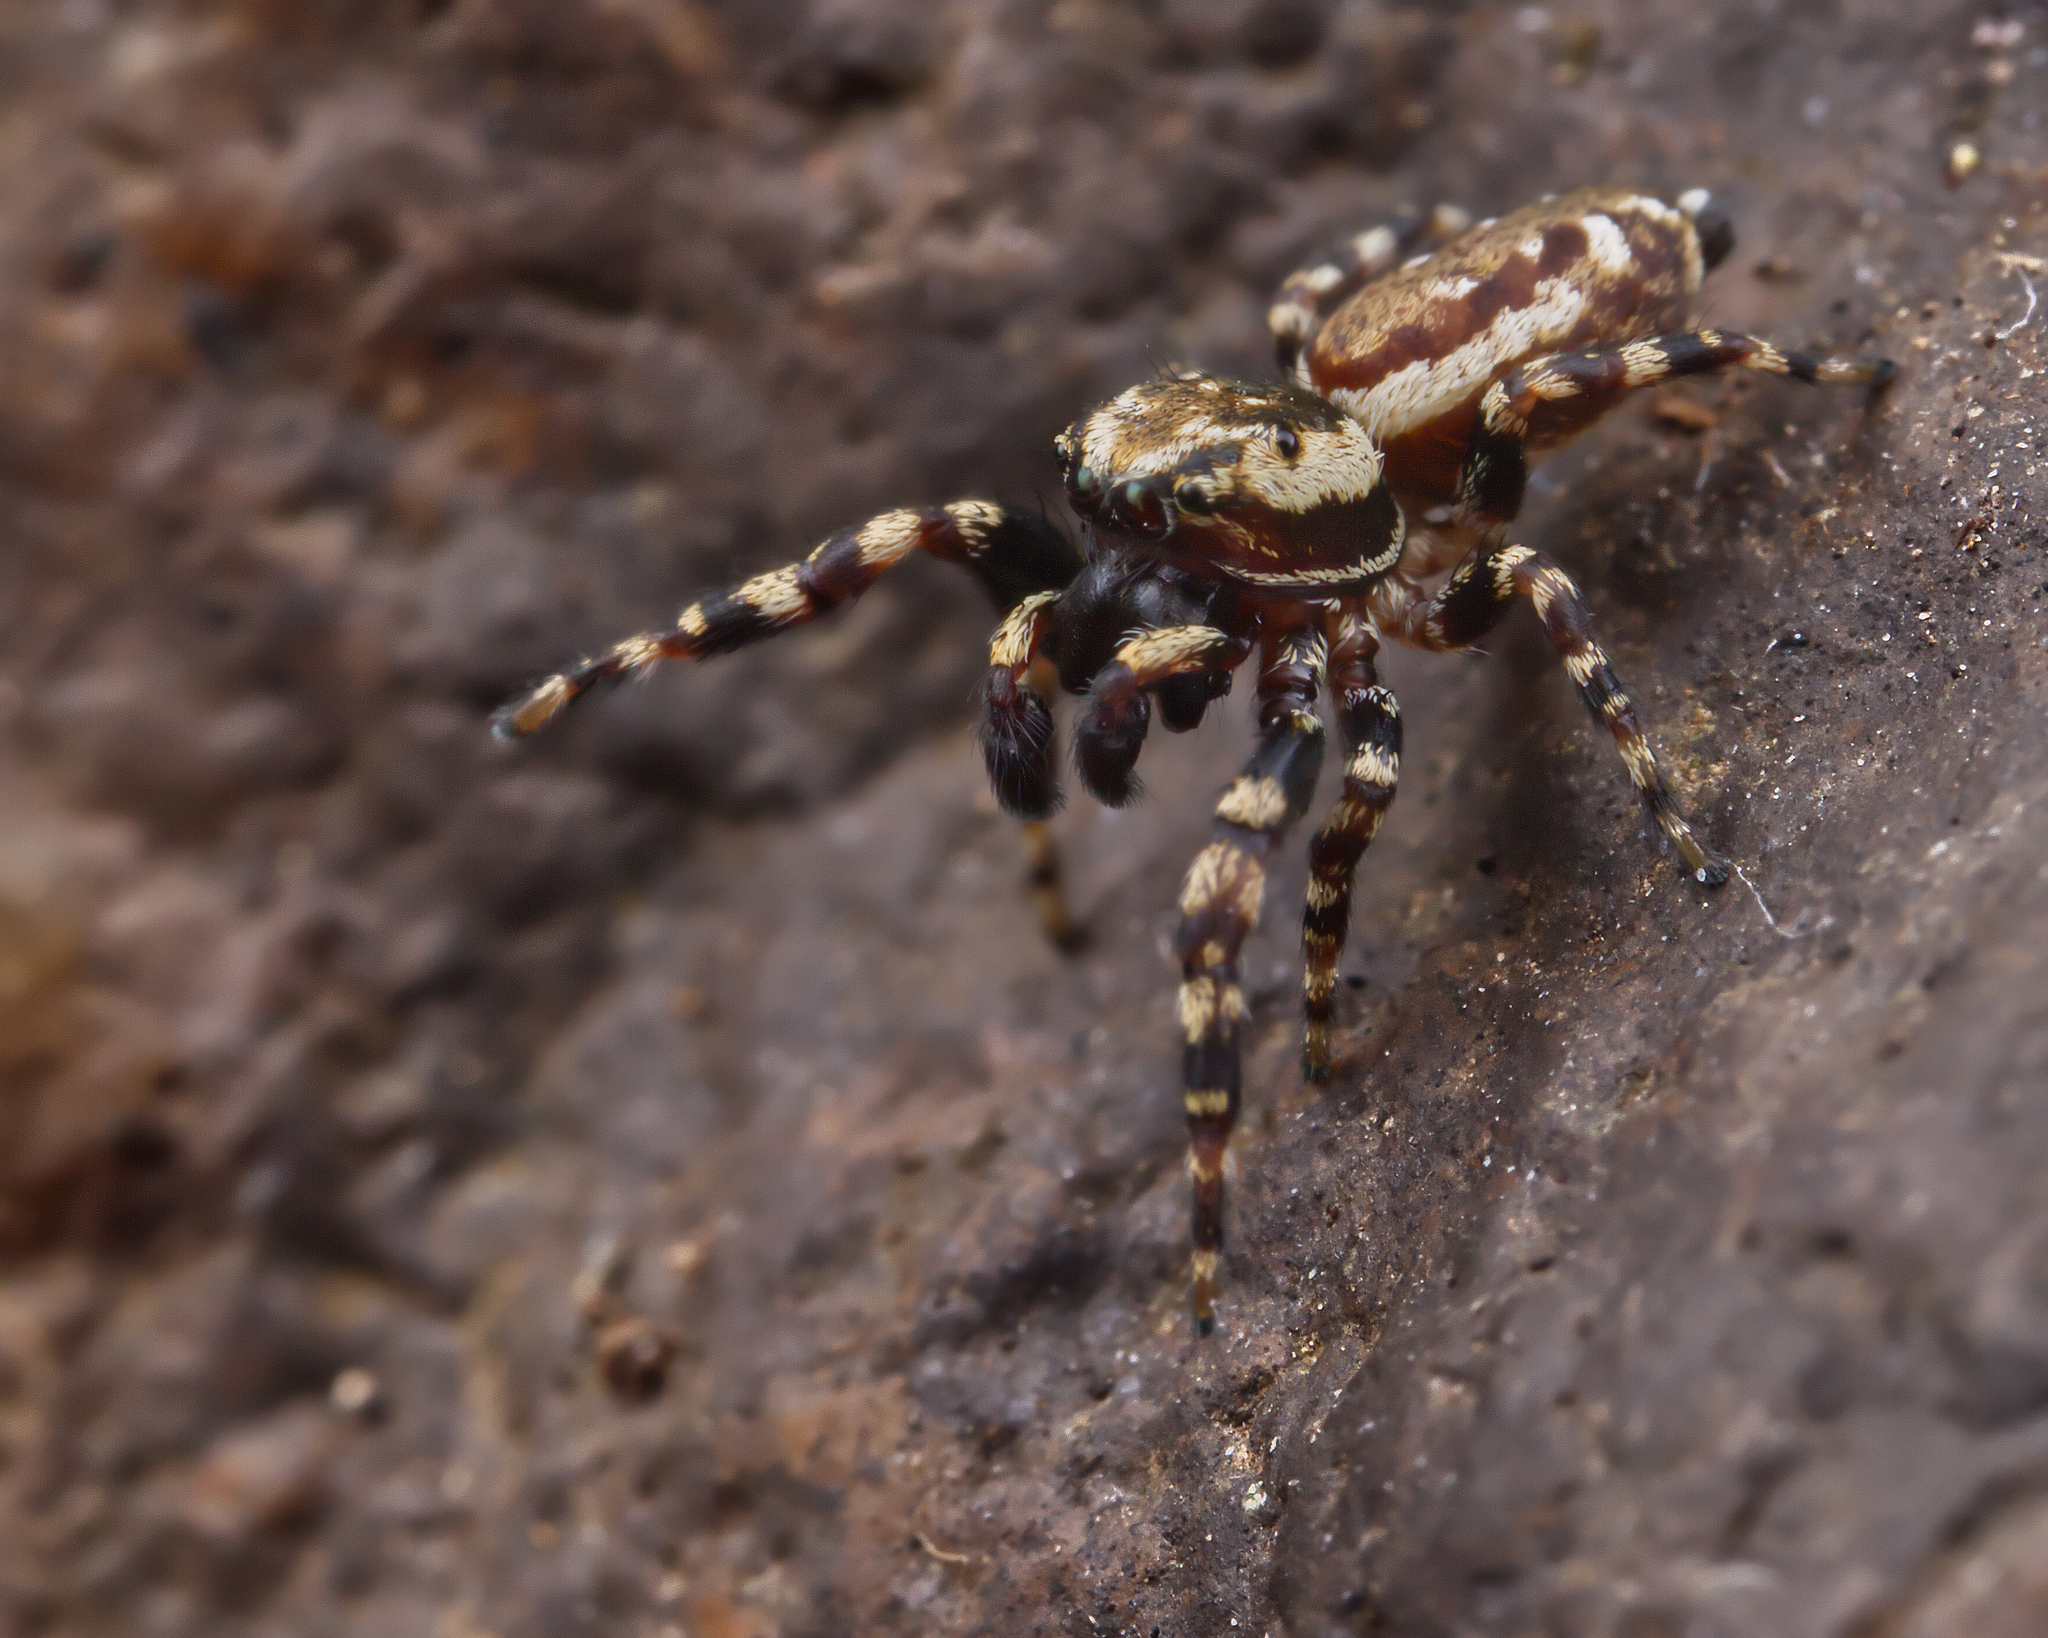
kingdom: Animalia
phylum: Arthropoda
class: Arachnida
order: Araneae
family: Salticidae
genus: Pelegrina
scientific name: Pelegrina galathea
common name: Jumping spiders
